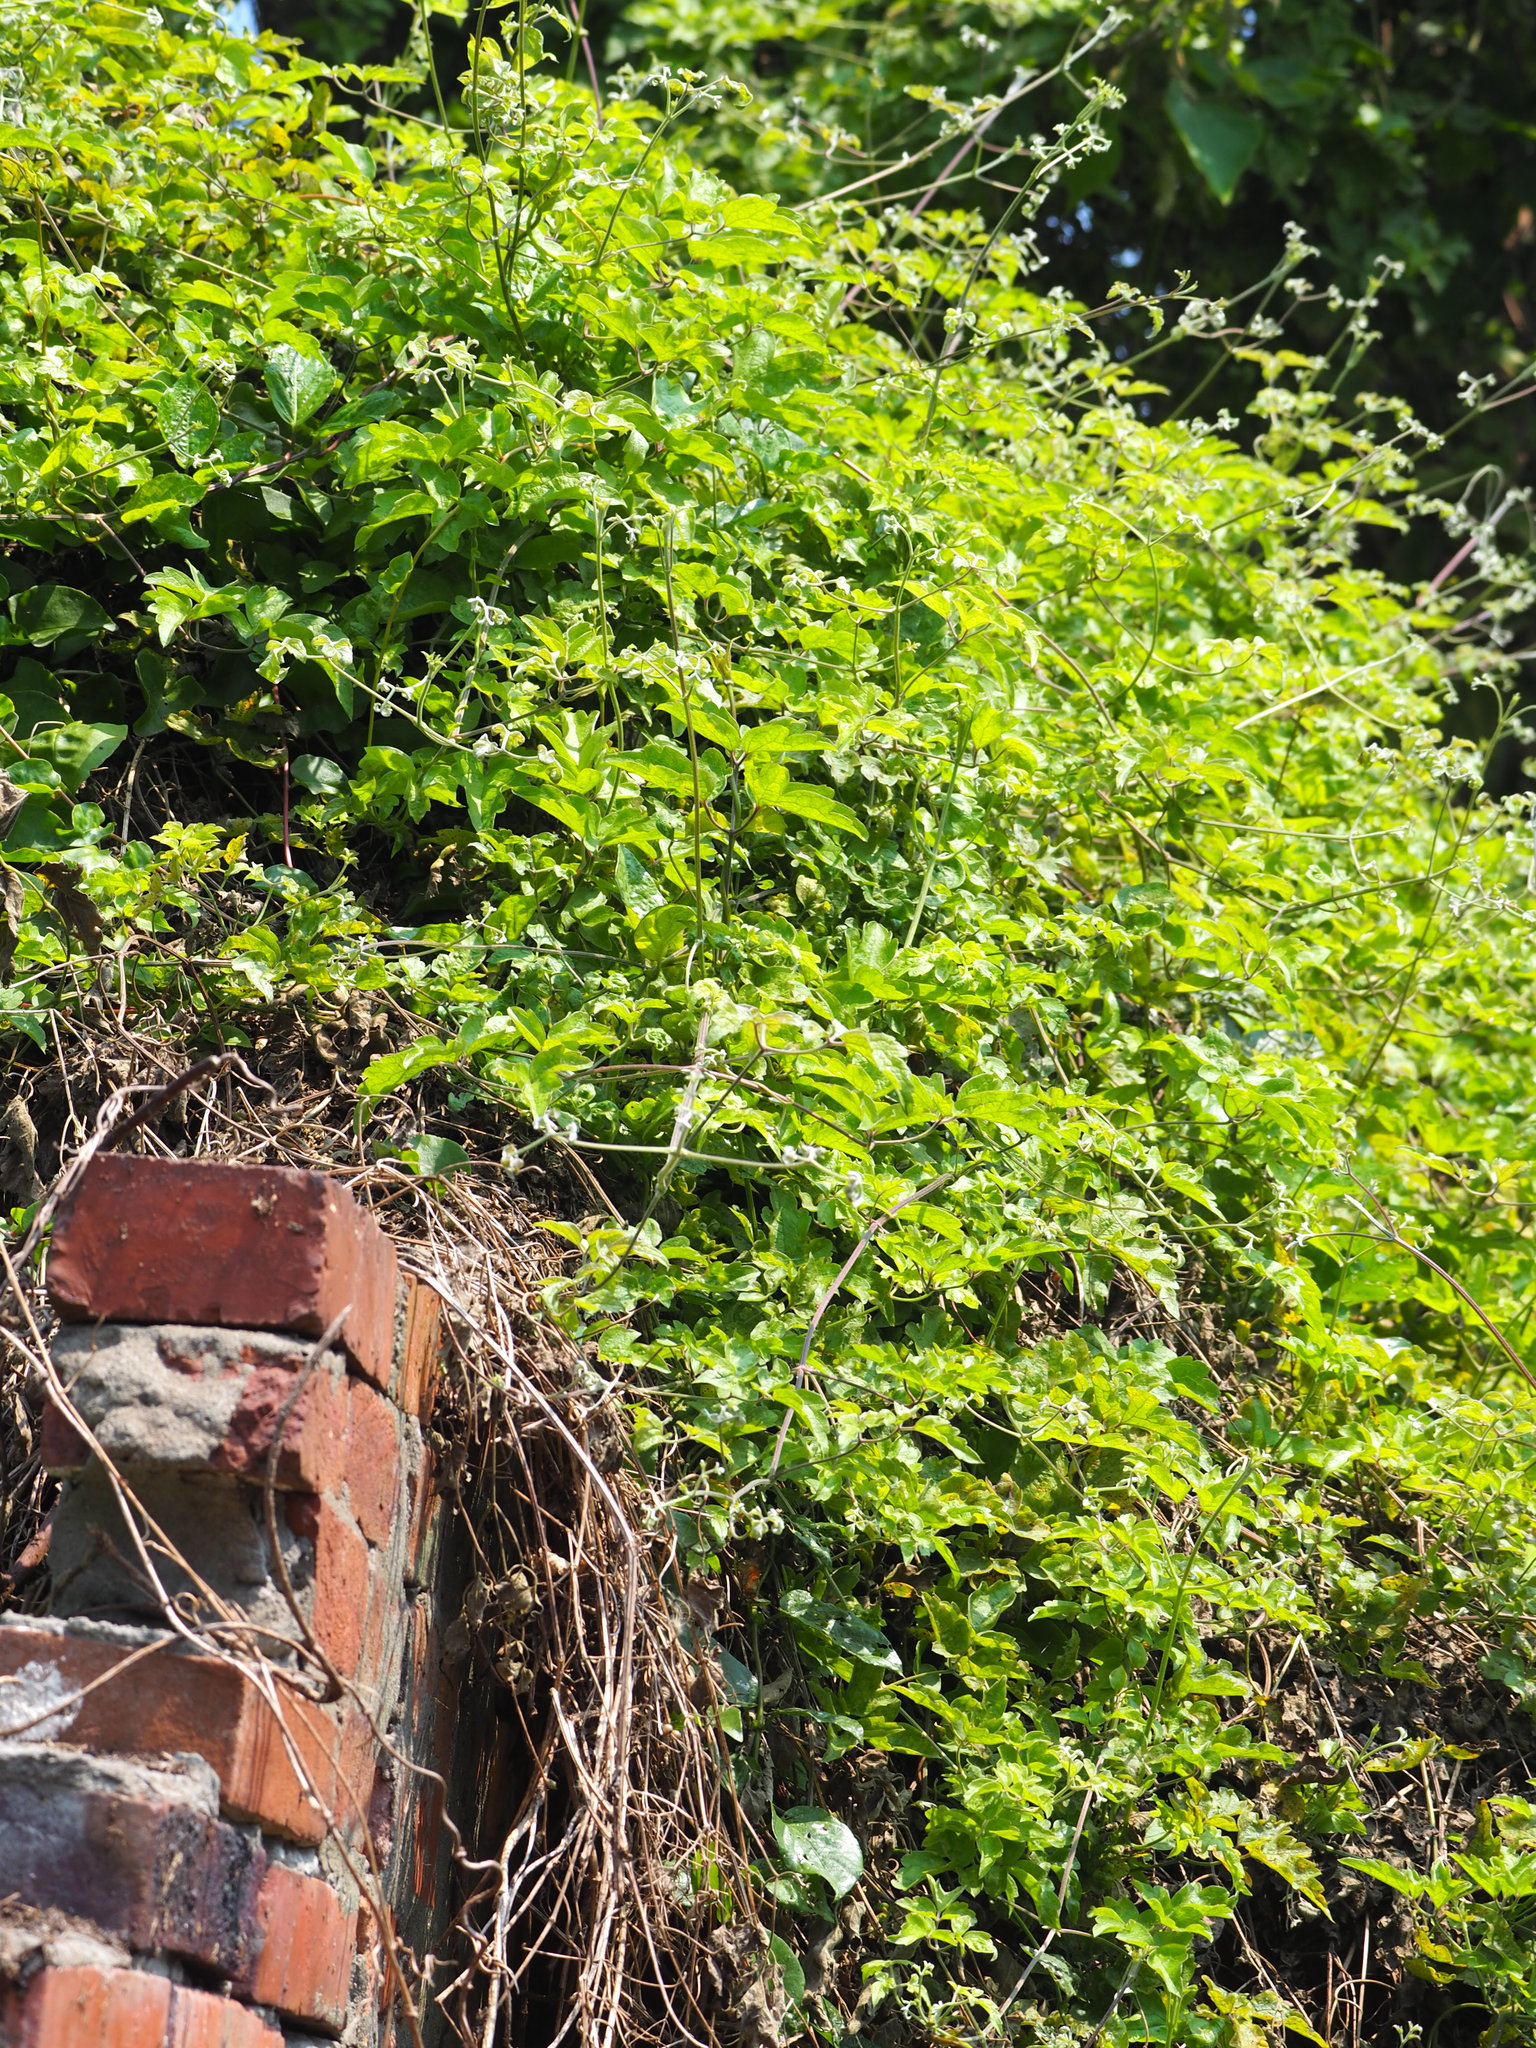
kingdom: Plantae
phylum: Tracheophyta
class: Magnoliopsida
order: Ranunculales
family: Ranunculaceae
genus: Clematis
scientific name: Clematis grata
